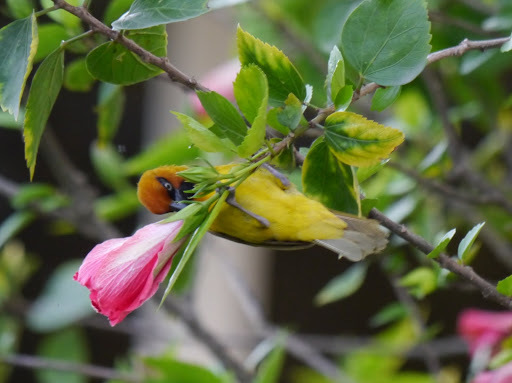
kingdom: Animalia
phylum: Chordata
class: Aves
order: Passeriformes
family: Ploceidae
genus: Ploceus
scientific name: Ploceus nigricollis
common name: Black-necked weaver
